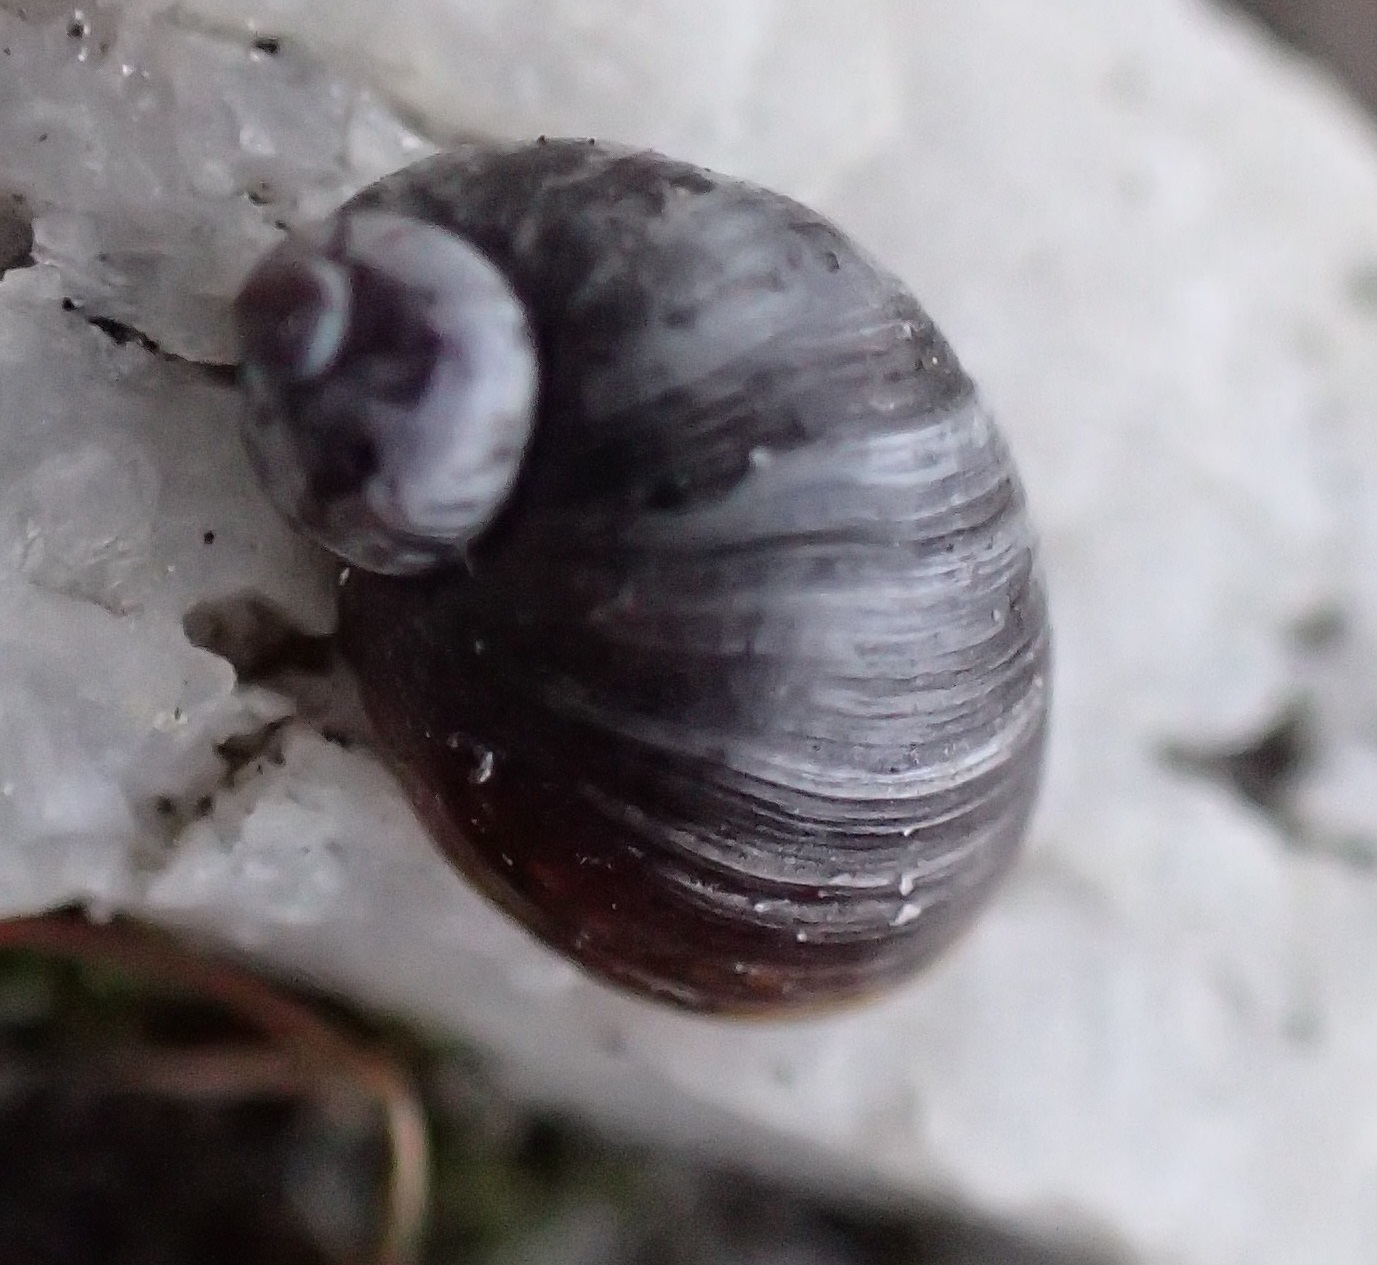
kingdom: Animalia
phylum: Mollusca
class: Gastropoda
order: Stylommatophora
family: Succineidae
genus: Succinea
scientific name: Succinea australis
